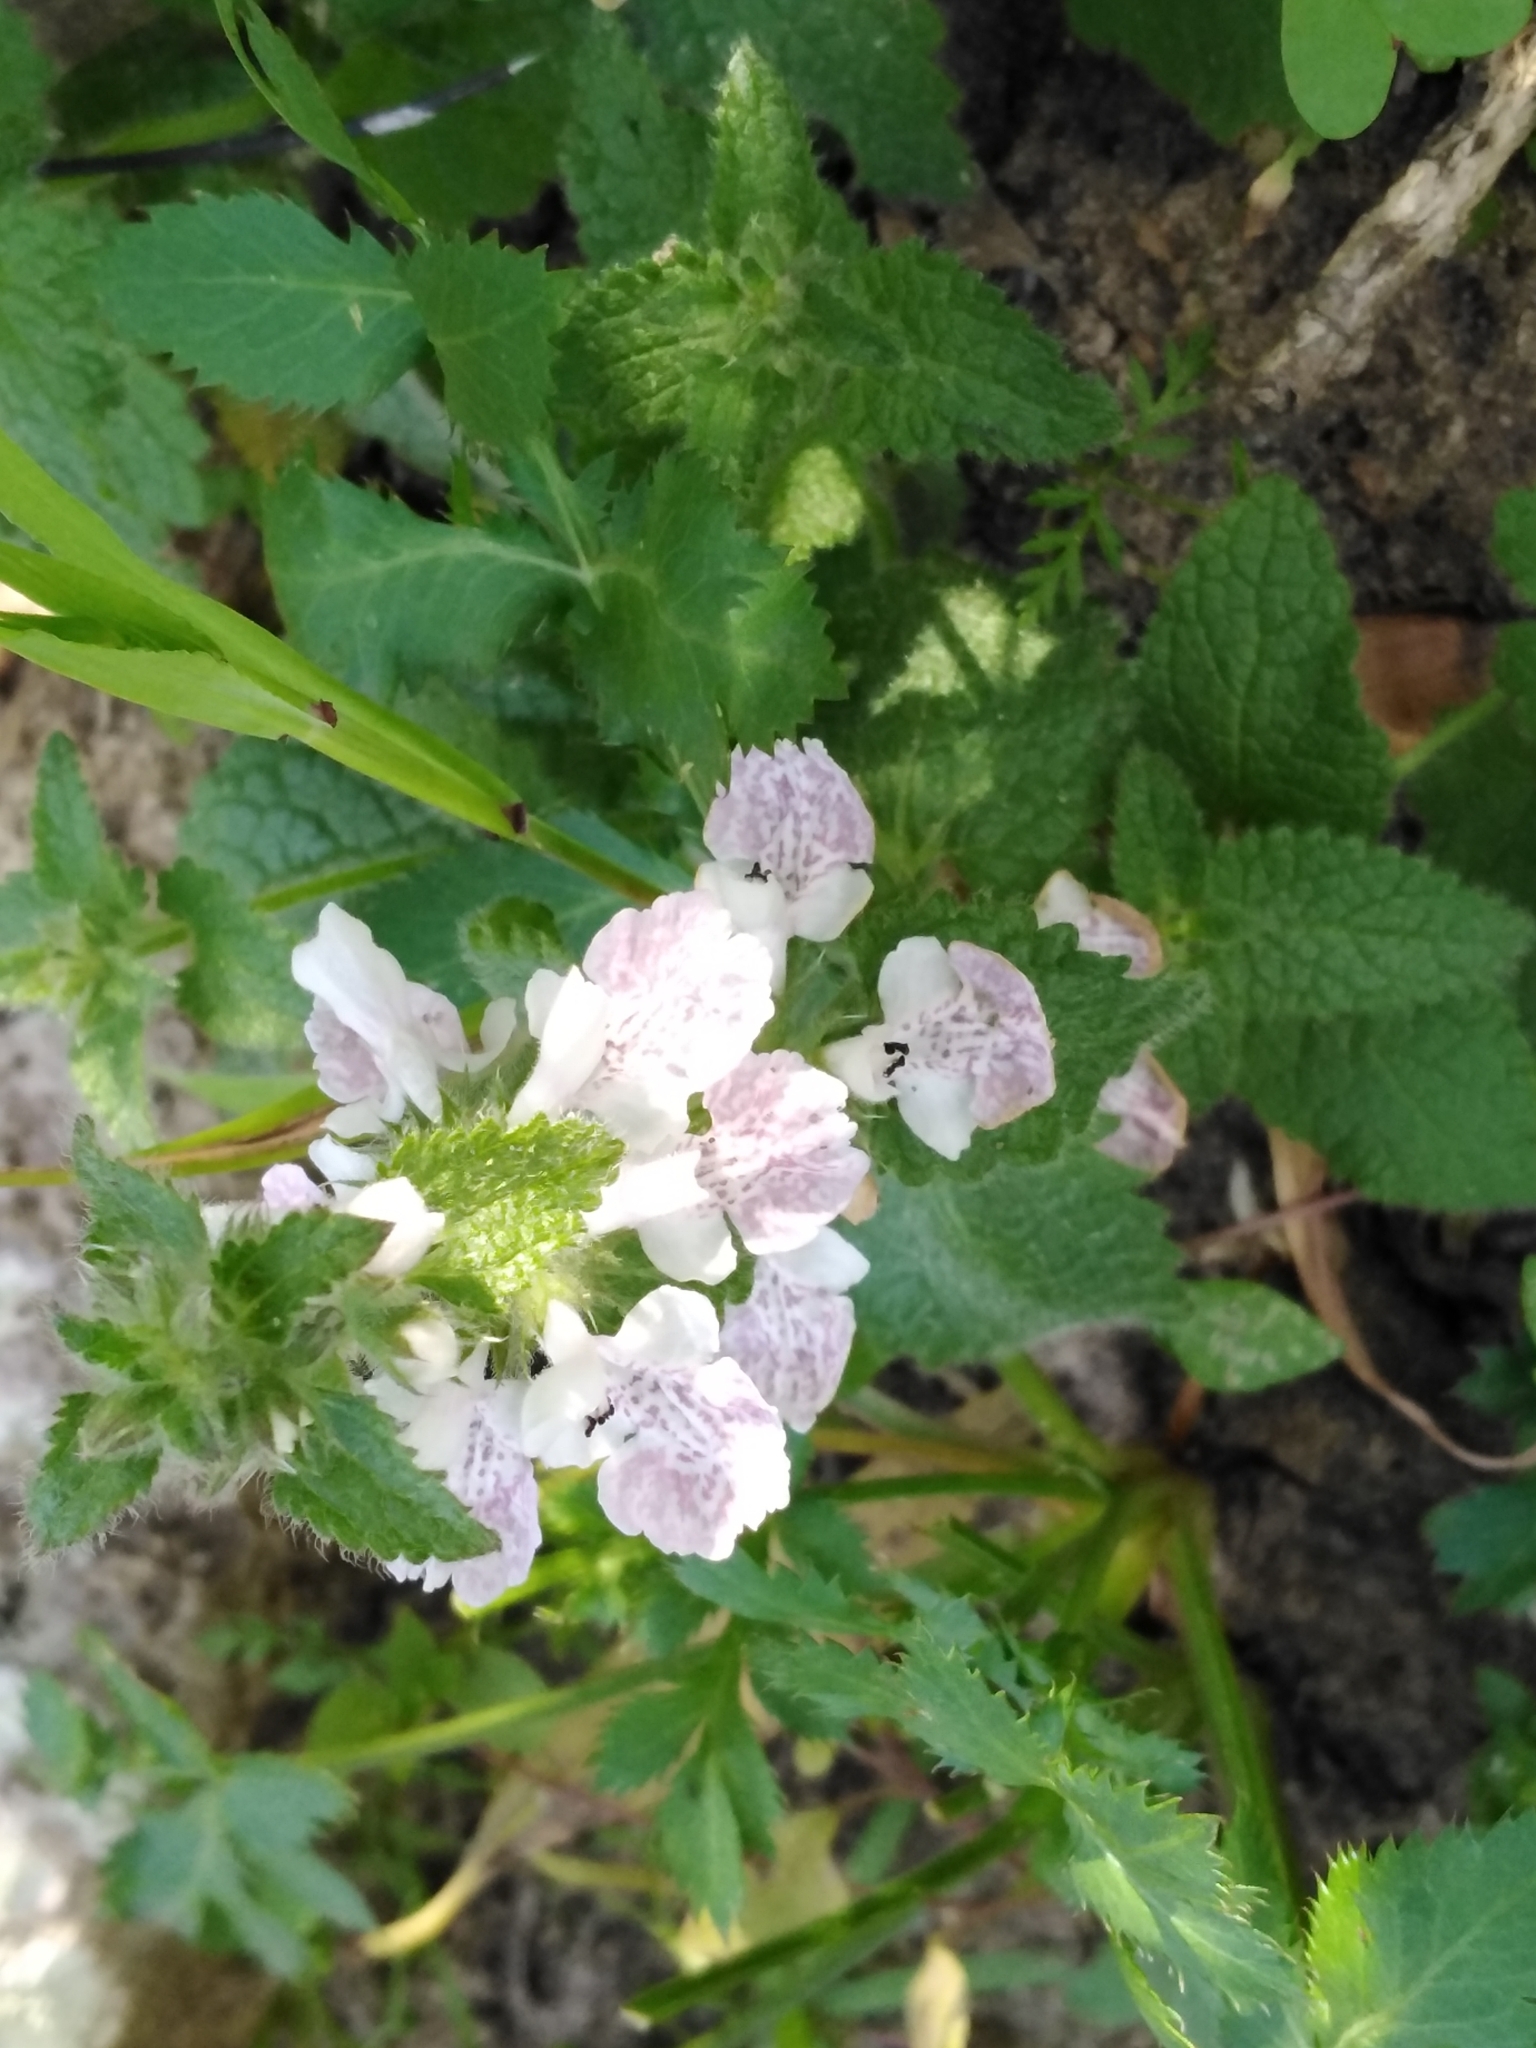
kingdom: Plantae
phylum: Tracheophyta
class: Magnoliopsida
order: Lamiales
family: Lamiaceae
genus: Stachys
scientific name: Stachys bolusii
